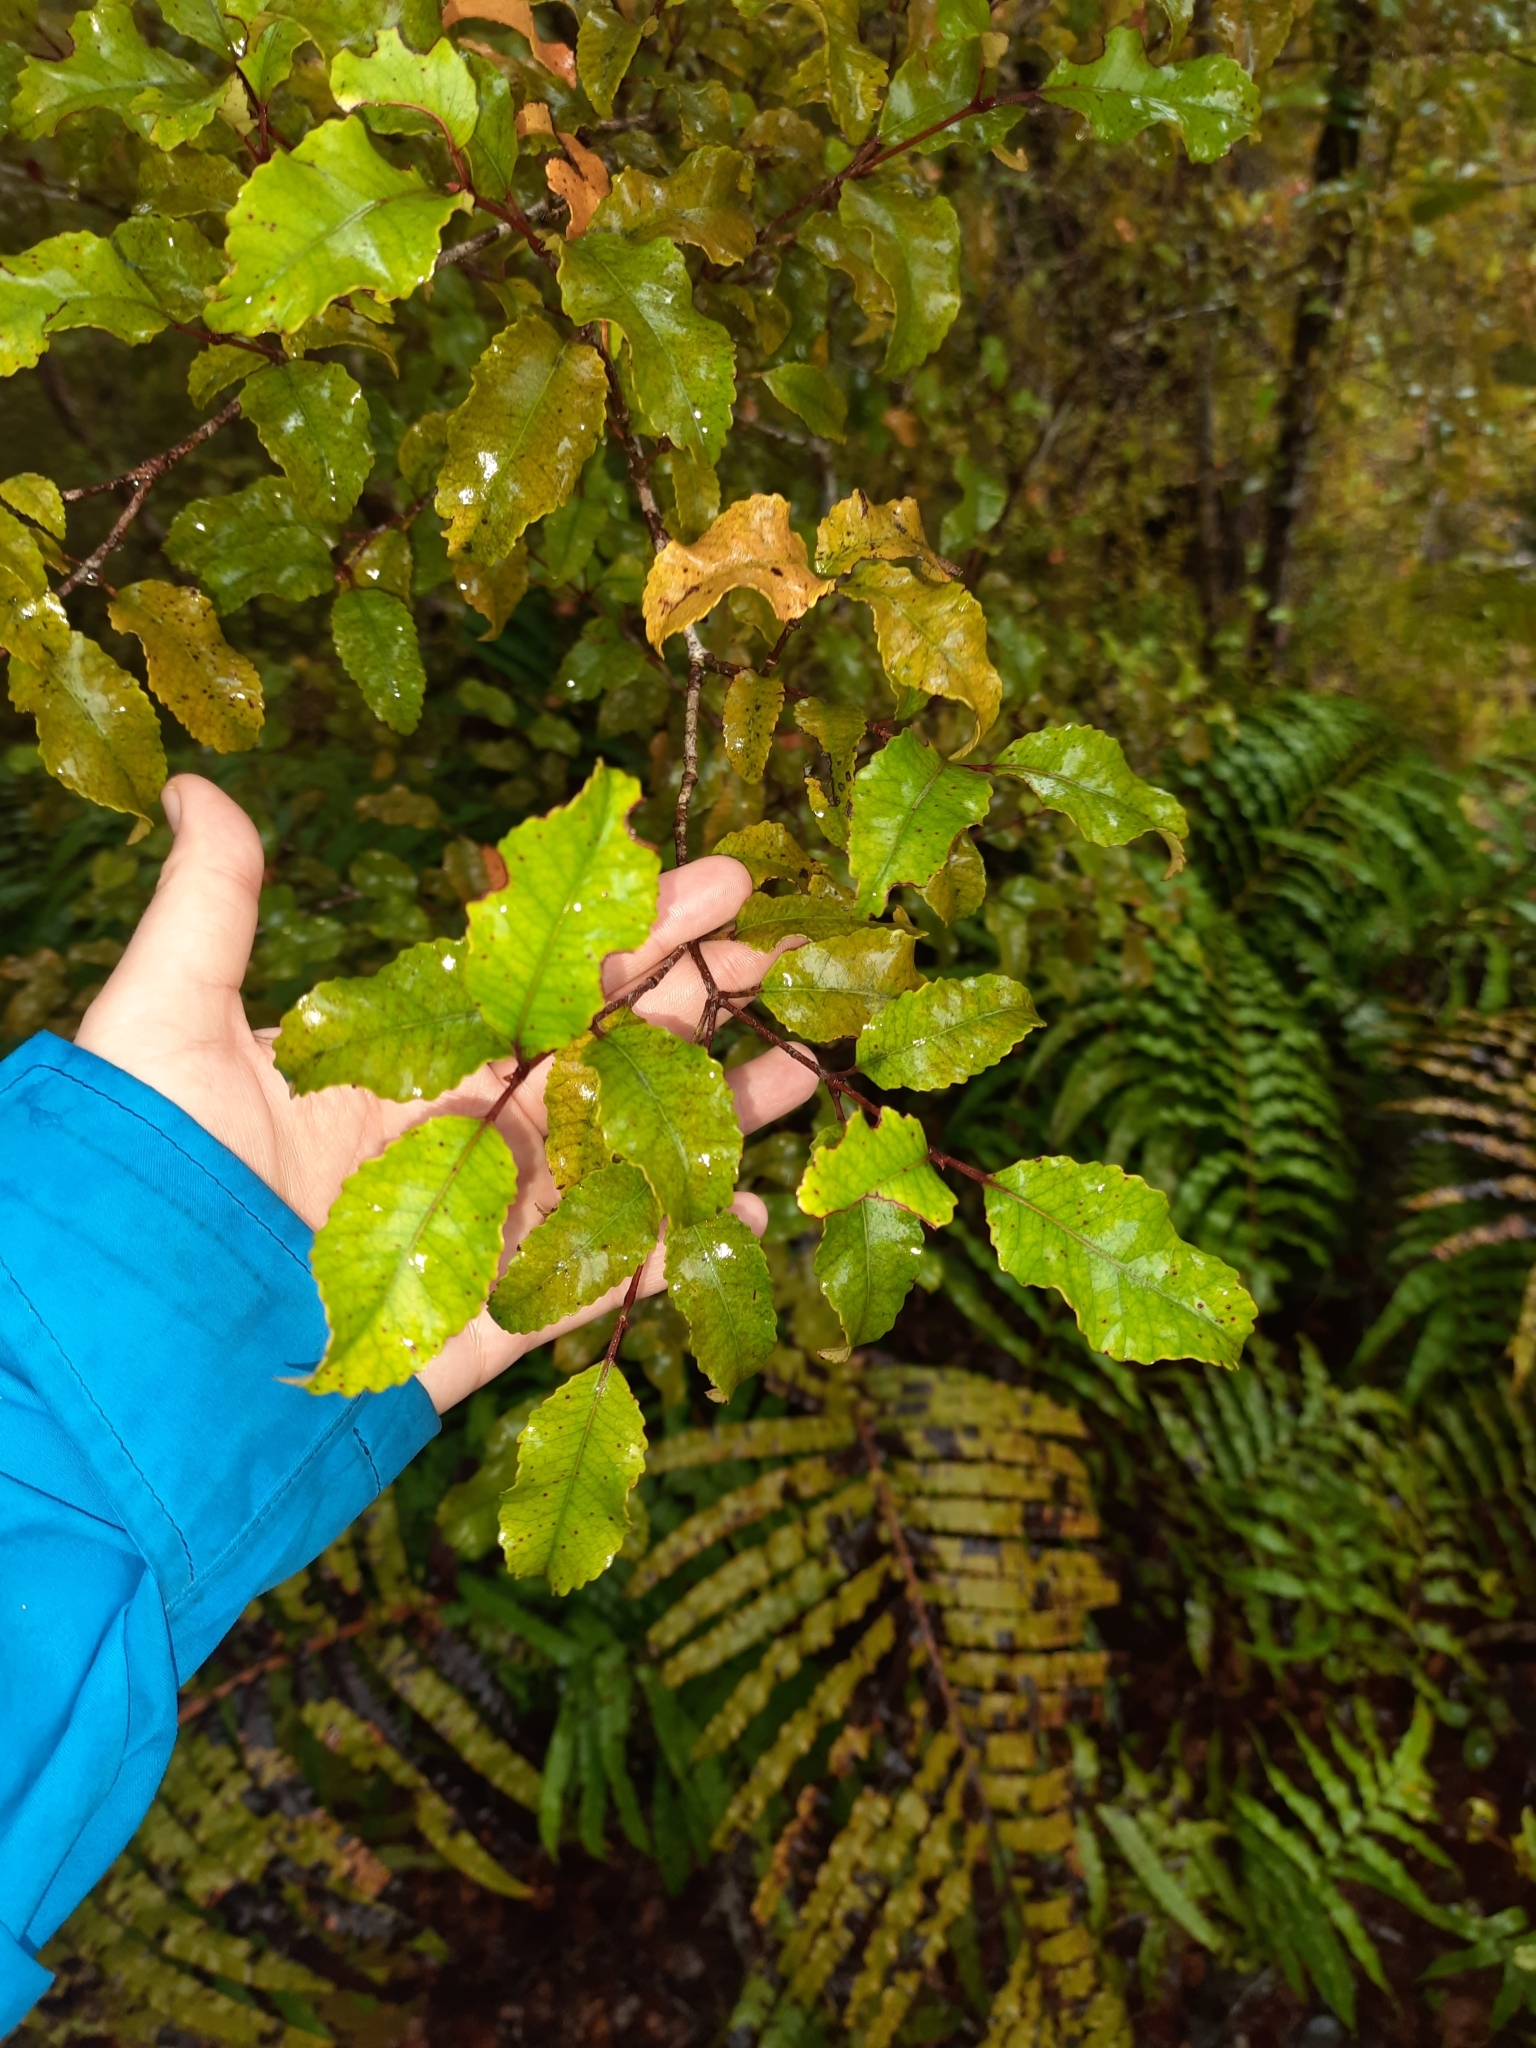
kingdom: Plantae
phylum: Tracheophyta
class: Magnoliopsida
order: Oxalidales
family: Cunoniaceae
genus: Pterophylla
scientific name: Pterophylla racemosa
